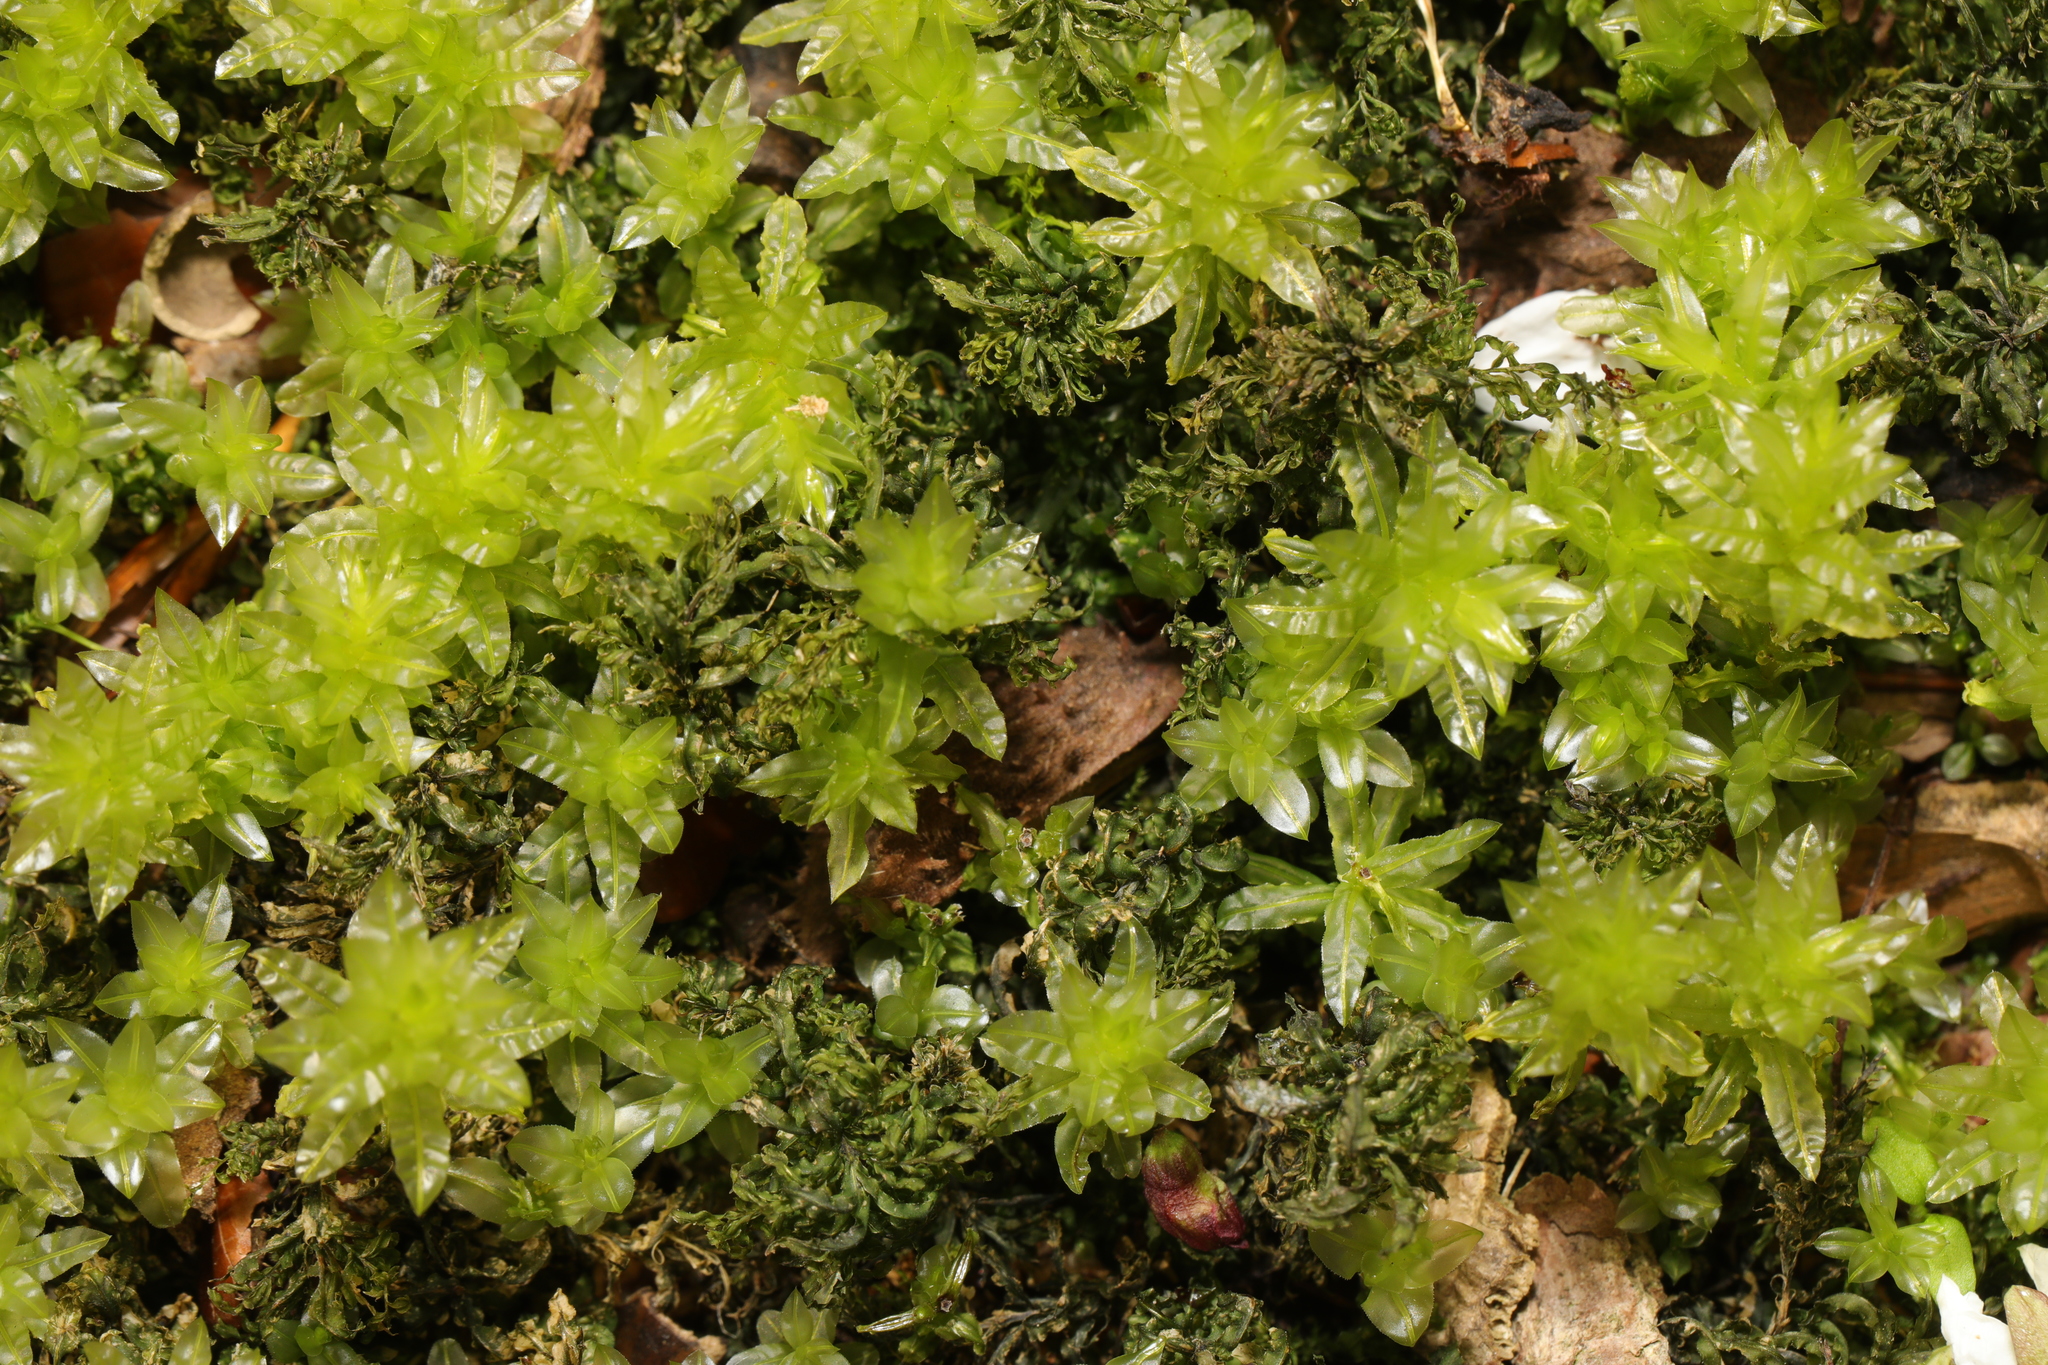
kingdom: Plantae
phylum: Bryophyta
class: Bryopsida
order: Bryales
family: Mniaceae
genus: Plagiomnium
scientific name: Plagiomnium undulatum
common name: Hart's-tongue thyme-moss
